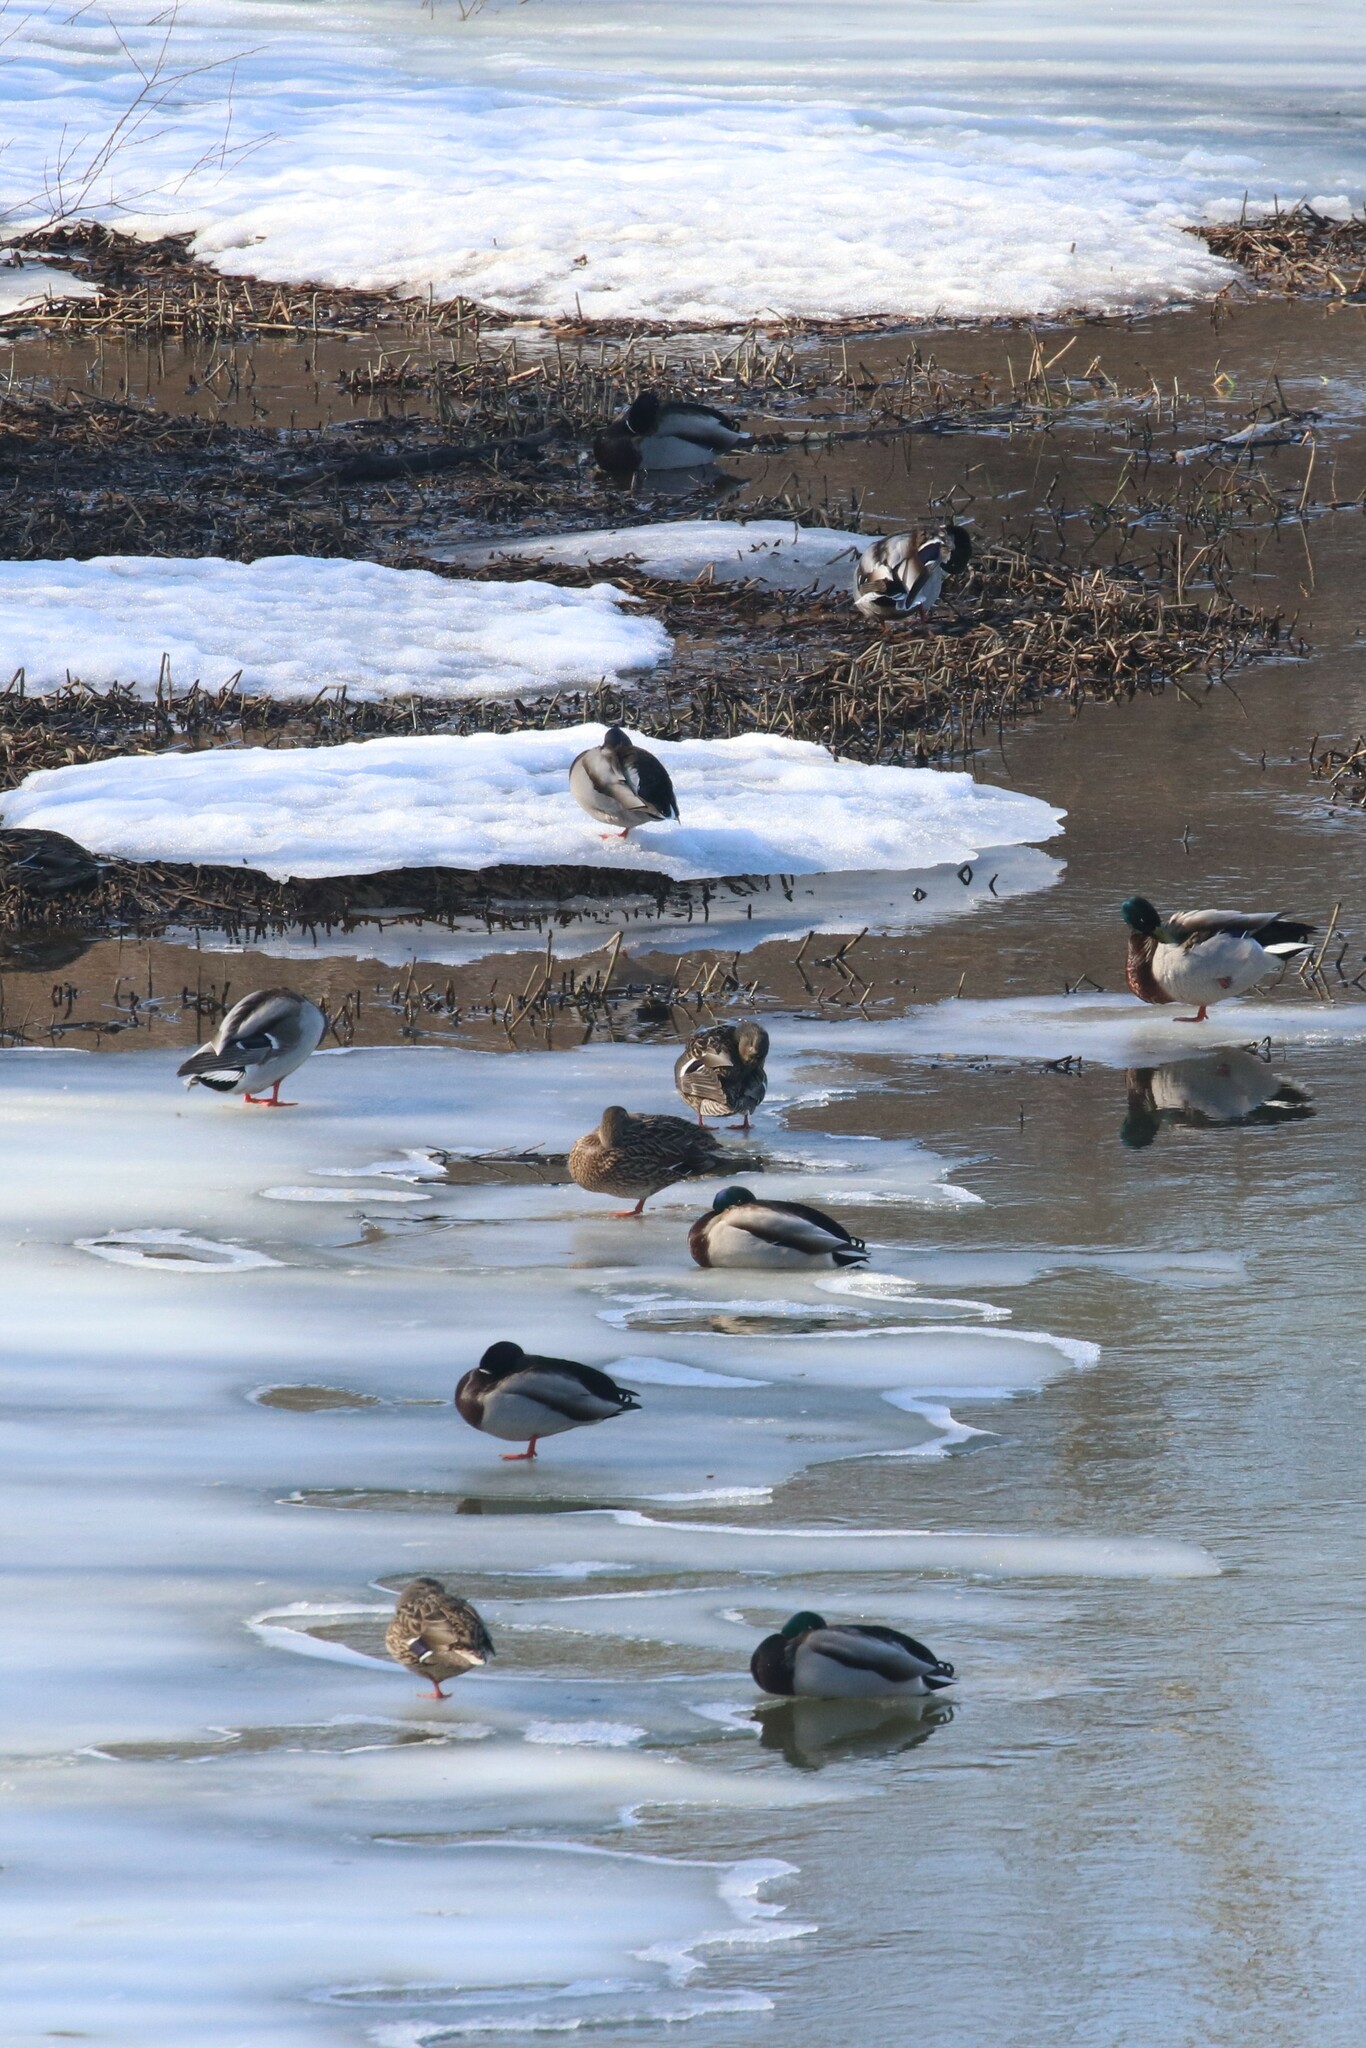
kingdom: Animalia
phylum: Chordata
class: Aves
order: Anseriformes
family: Anatidae
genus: Anas
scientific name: Anas platyrhynchos
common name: Mallard
